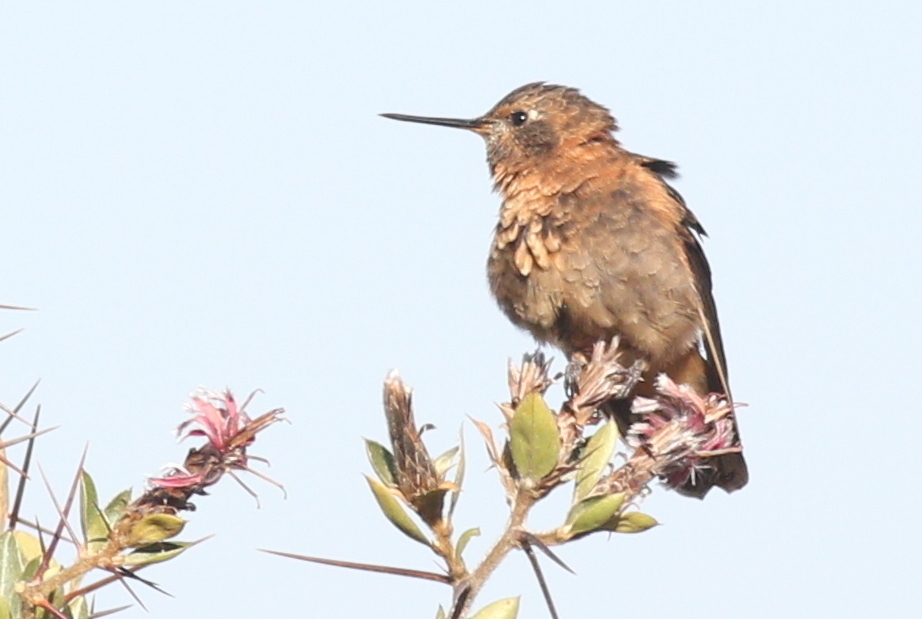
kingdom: Animalia
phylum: Chordata
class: Aves
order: Apodiformes
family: Trochilidae
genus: Aglaeactis
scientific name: Aglaeactis cupripennis
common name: Shining sunbeam
